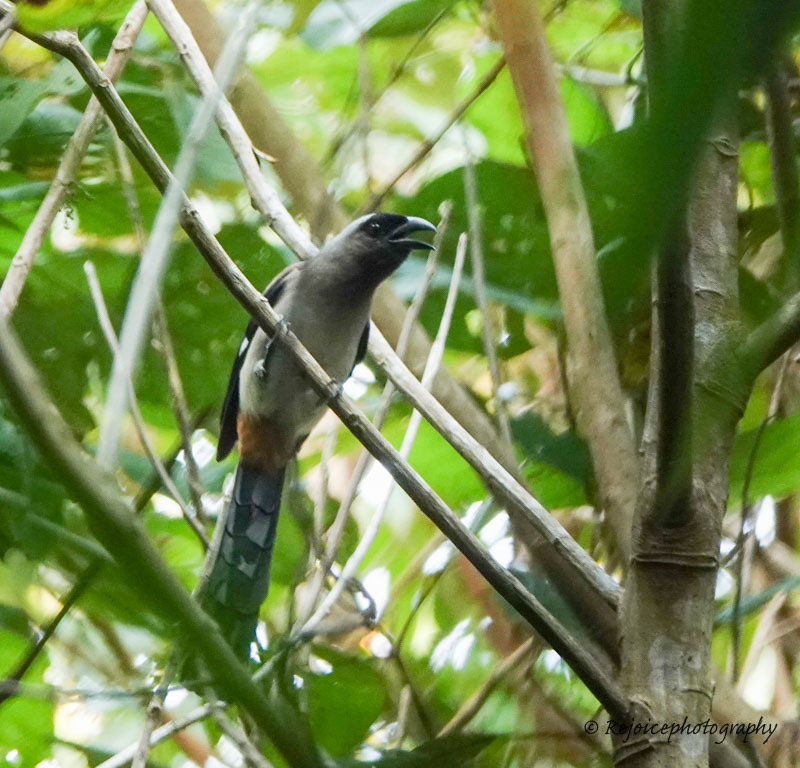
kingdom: Animalia
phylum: Chordata
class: Aves
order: Passeriformes
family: Corvidae
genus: Dendrocitta
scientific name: Dendrocitta formosae
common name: Grey treepie
